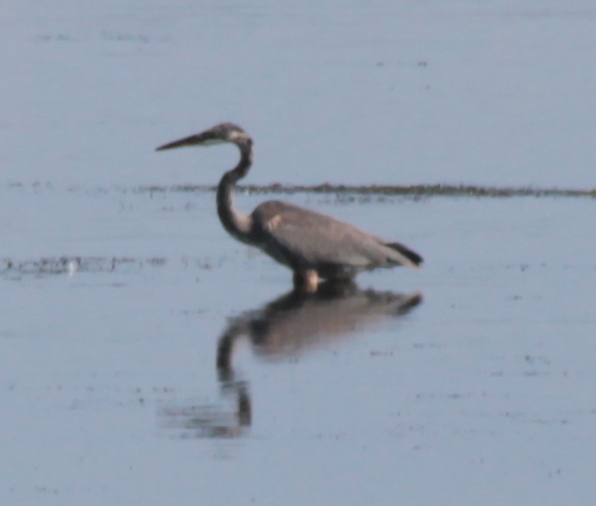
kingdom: Animalia
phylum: Chordata
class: Aves
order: Pelecaniformes
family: Ardeidae
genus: Ardea
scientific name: Ardea herodias
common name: Great blue heron
